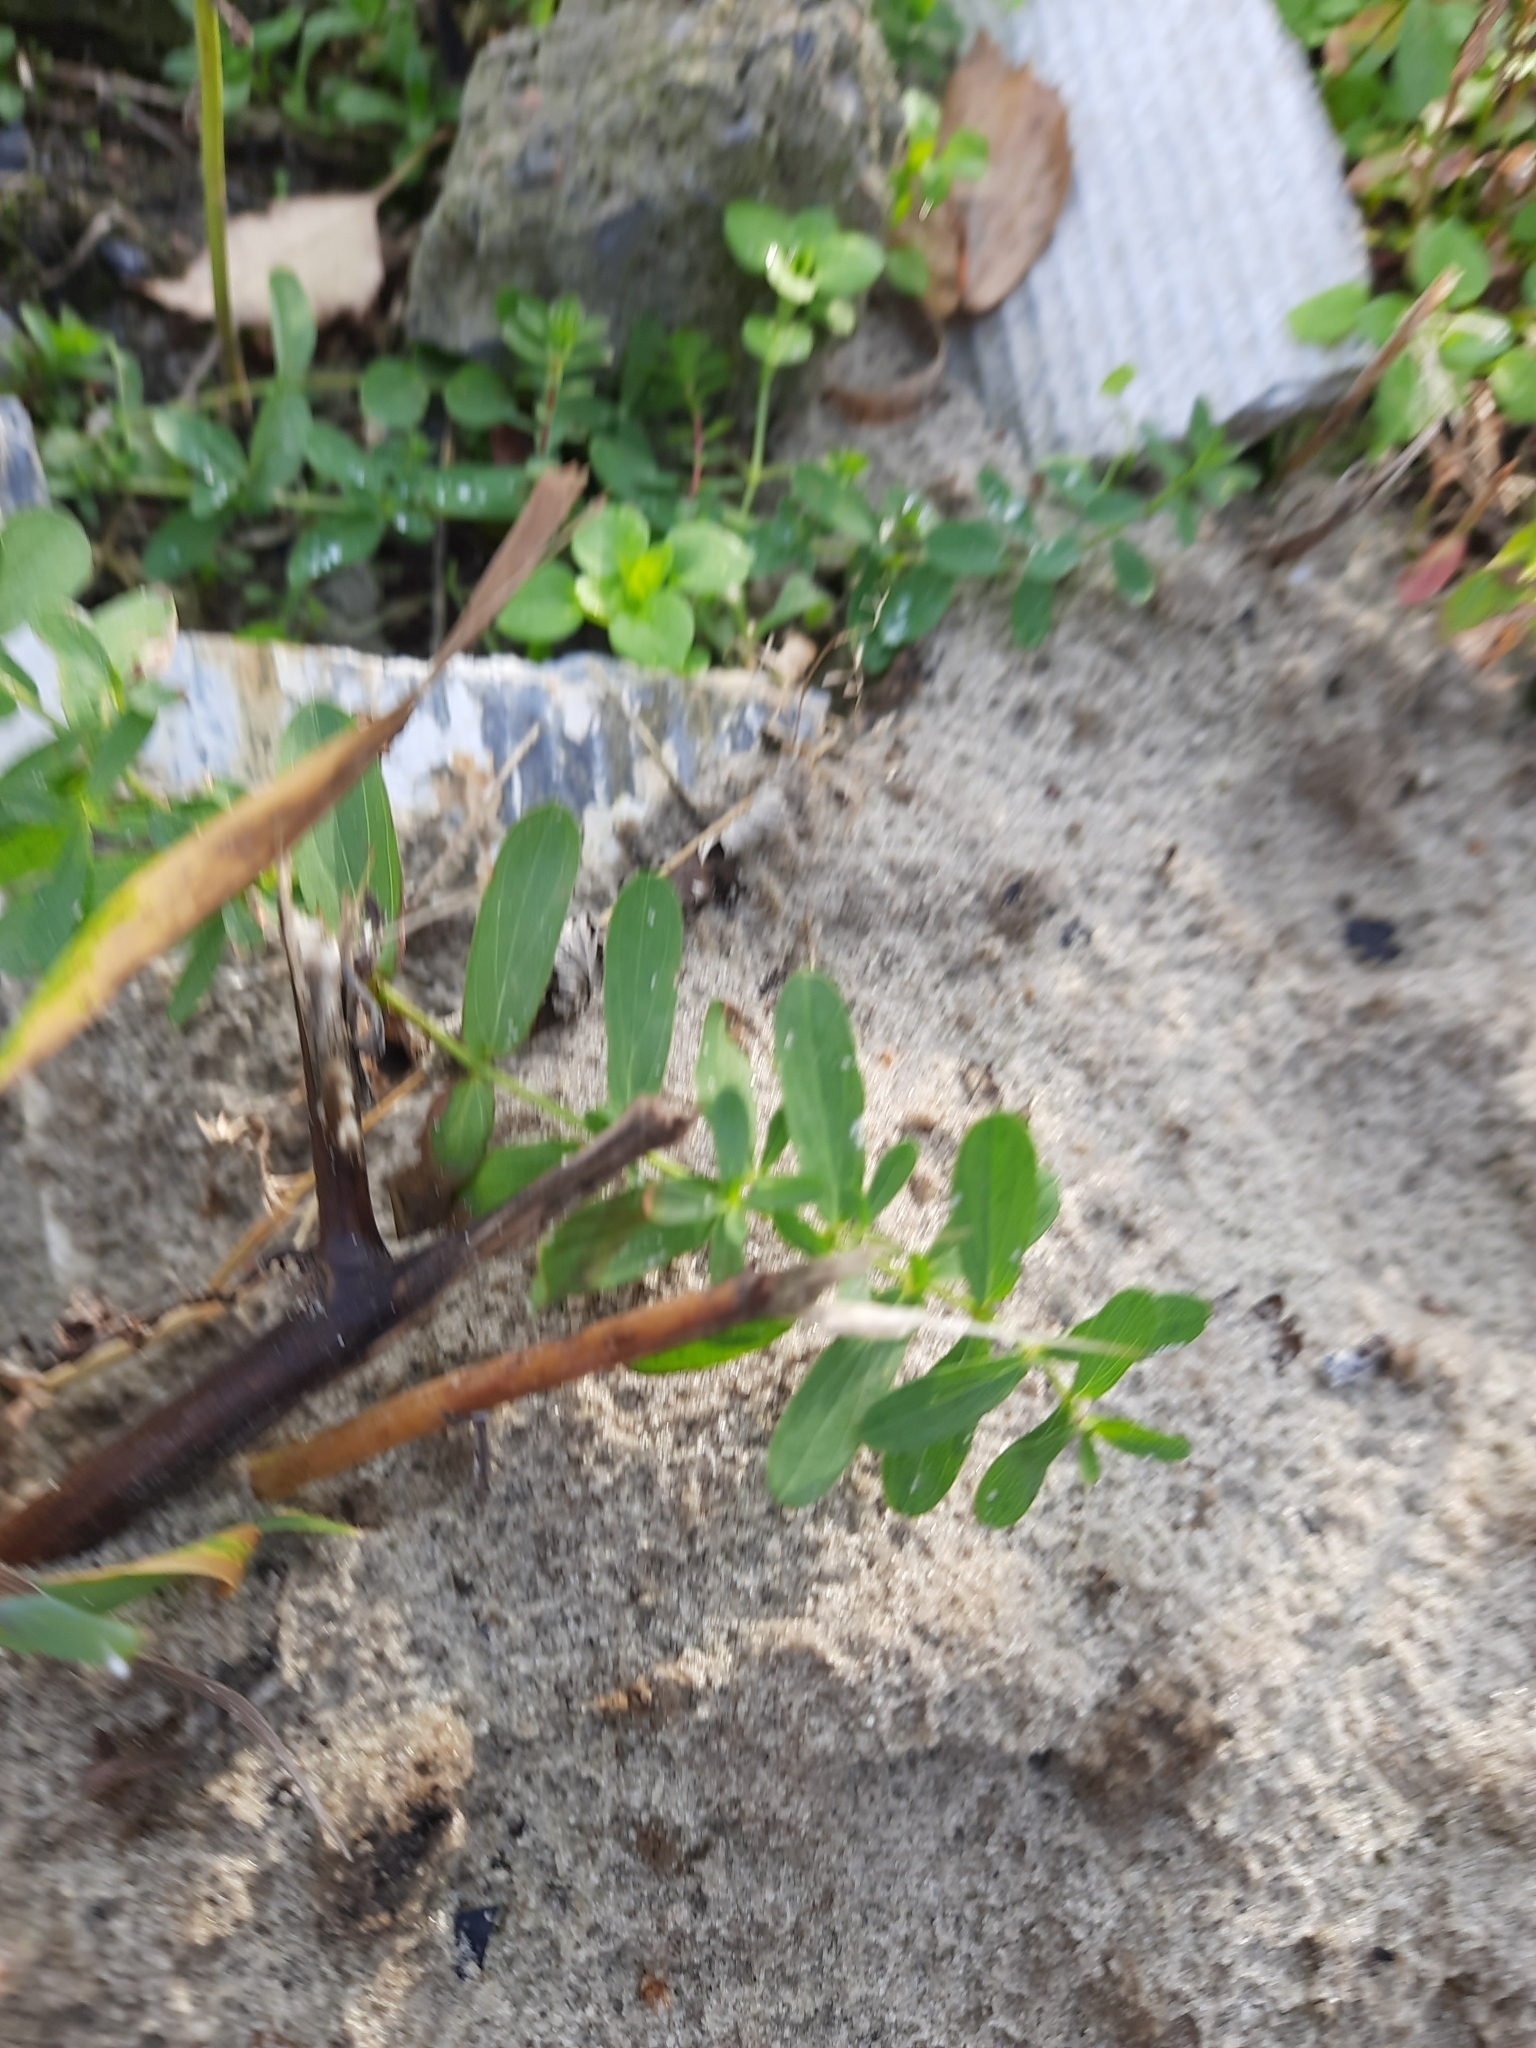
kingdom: Plantae
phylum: Tracheophyta
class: Magnoliopsida
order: Malpighiales
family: Hypericaceae
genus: Hypericum
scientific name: Hypericum perforatum
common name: Common st. johnswort
